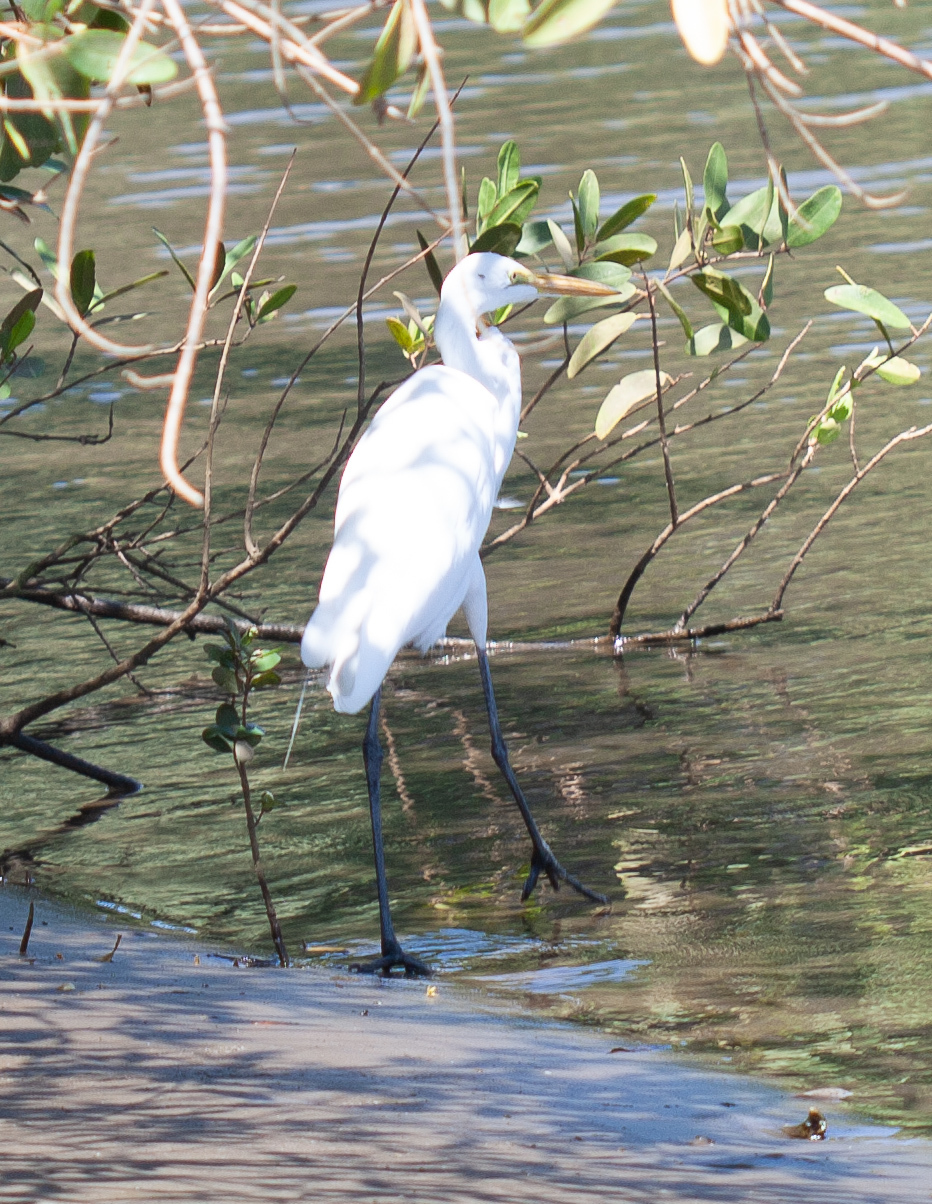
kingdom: Animalia
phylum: Chordata
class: Aves
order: Pelecaniformes
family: Ardeidae
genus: Ardea
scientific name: Ardea alba
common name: Great egret
